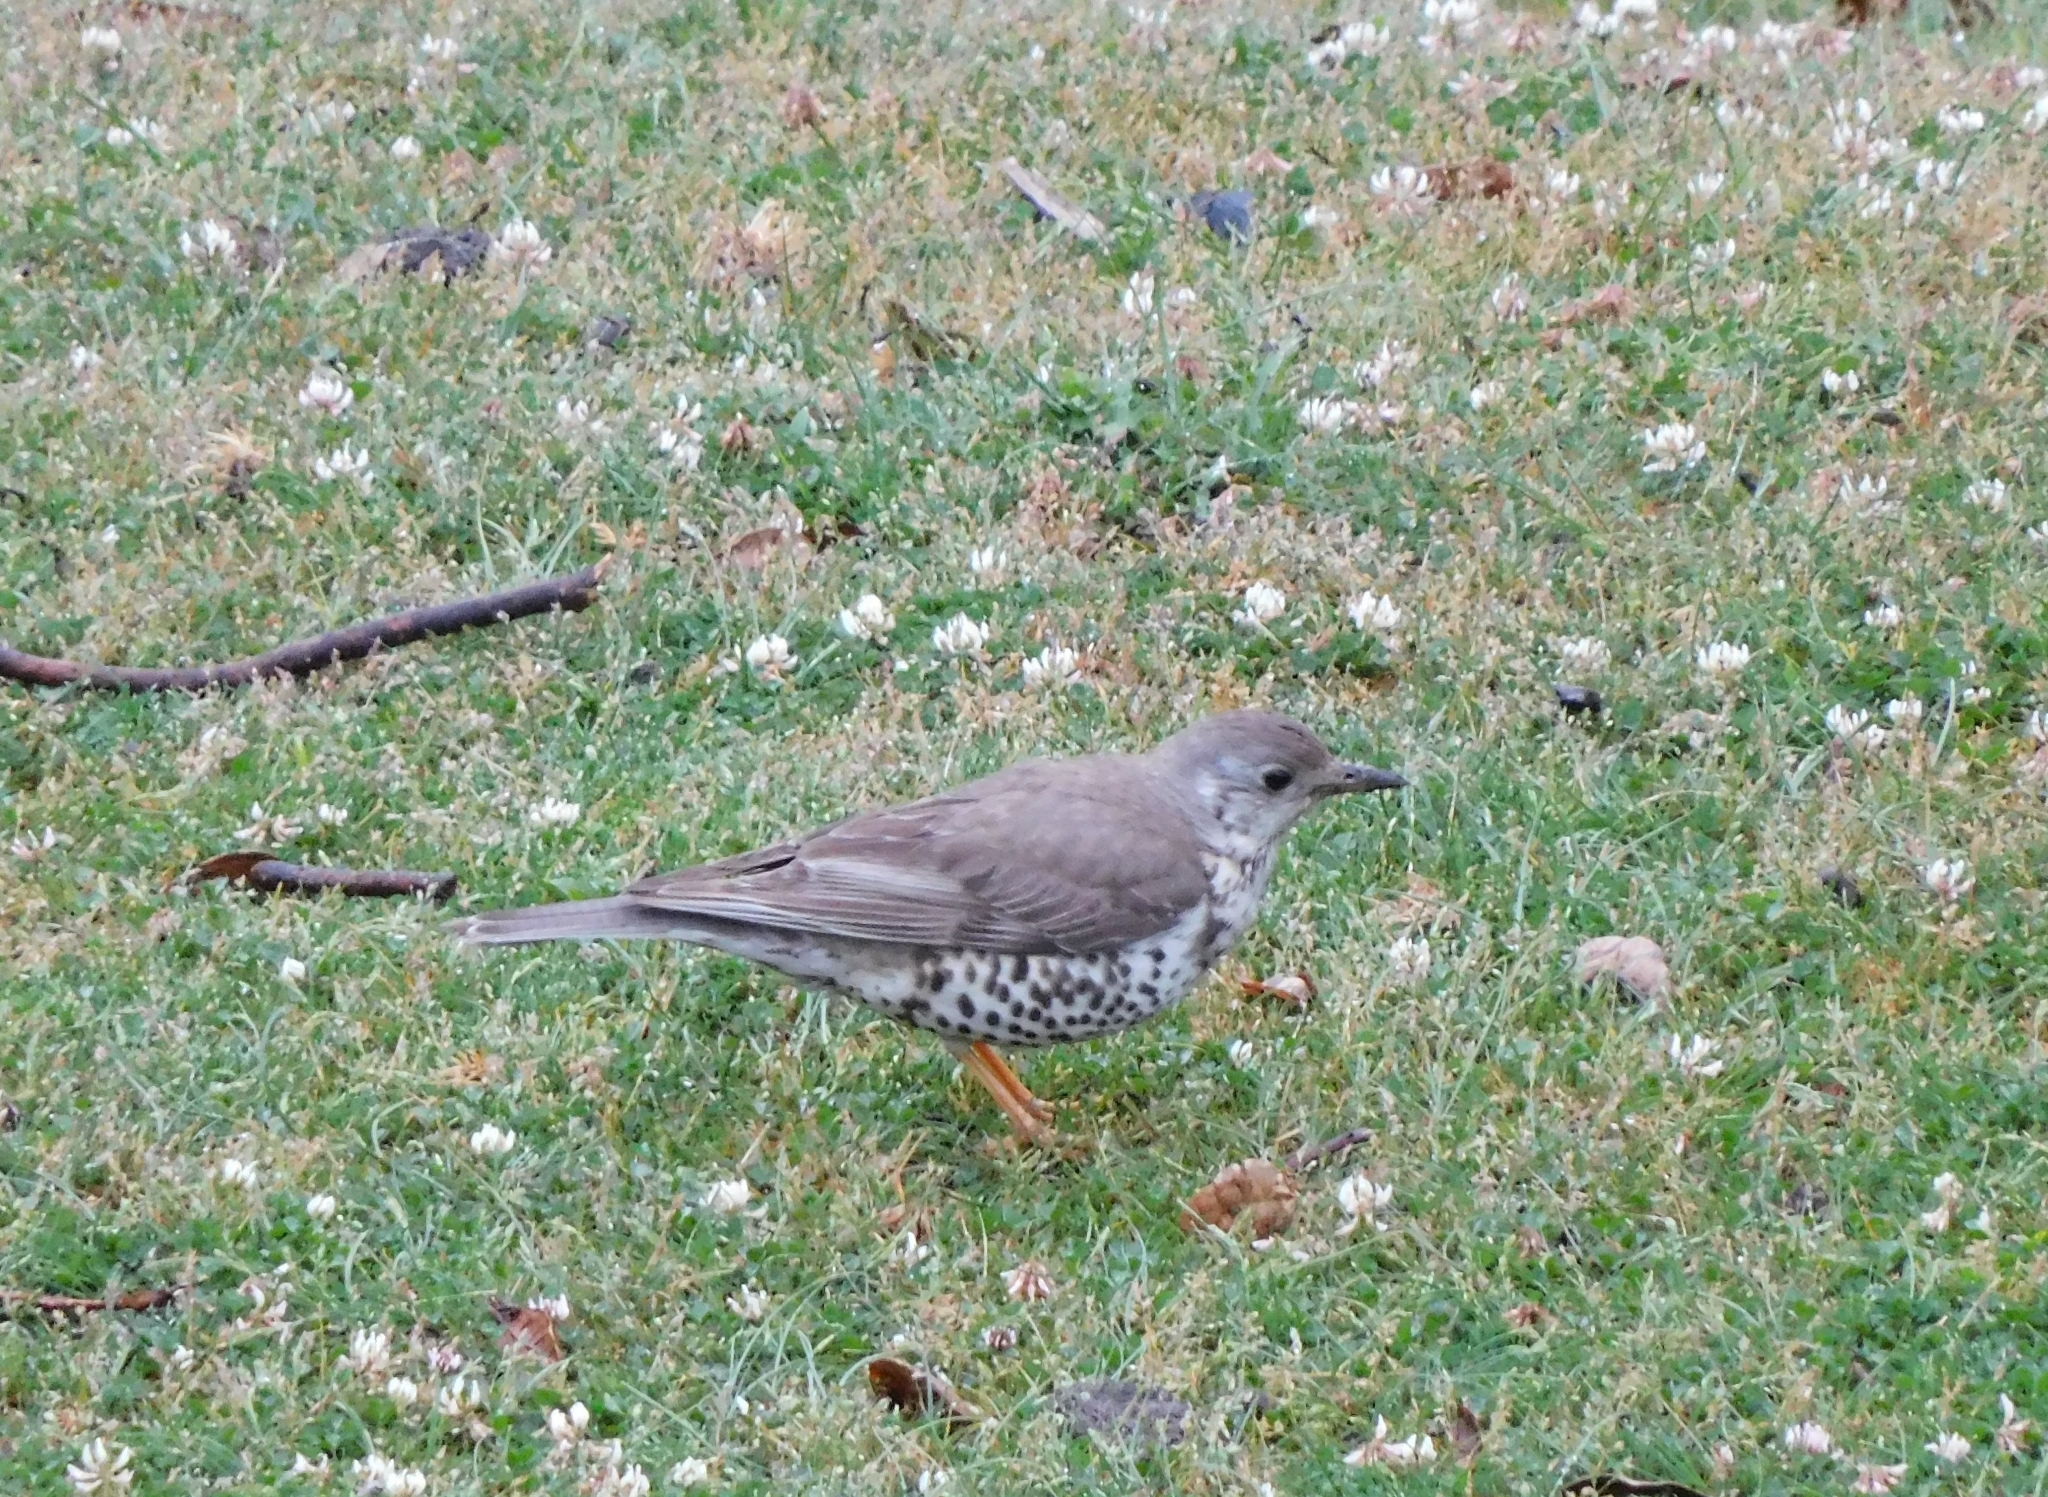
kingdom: Animalia
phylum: Chordata
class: Aves
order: Passeriformes
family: Turdidae
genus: Turdus
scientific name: Turdus viscivorus
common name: Mistle thrush
